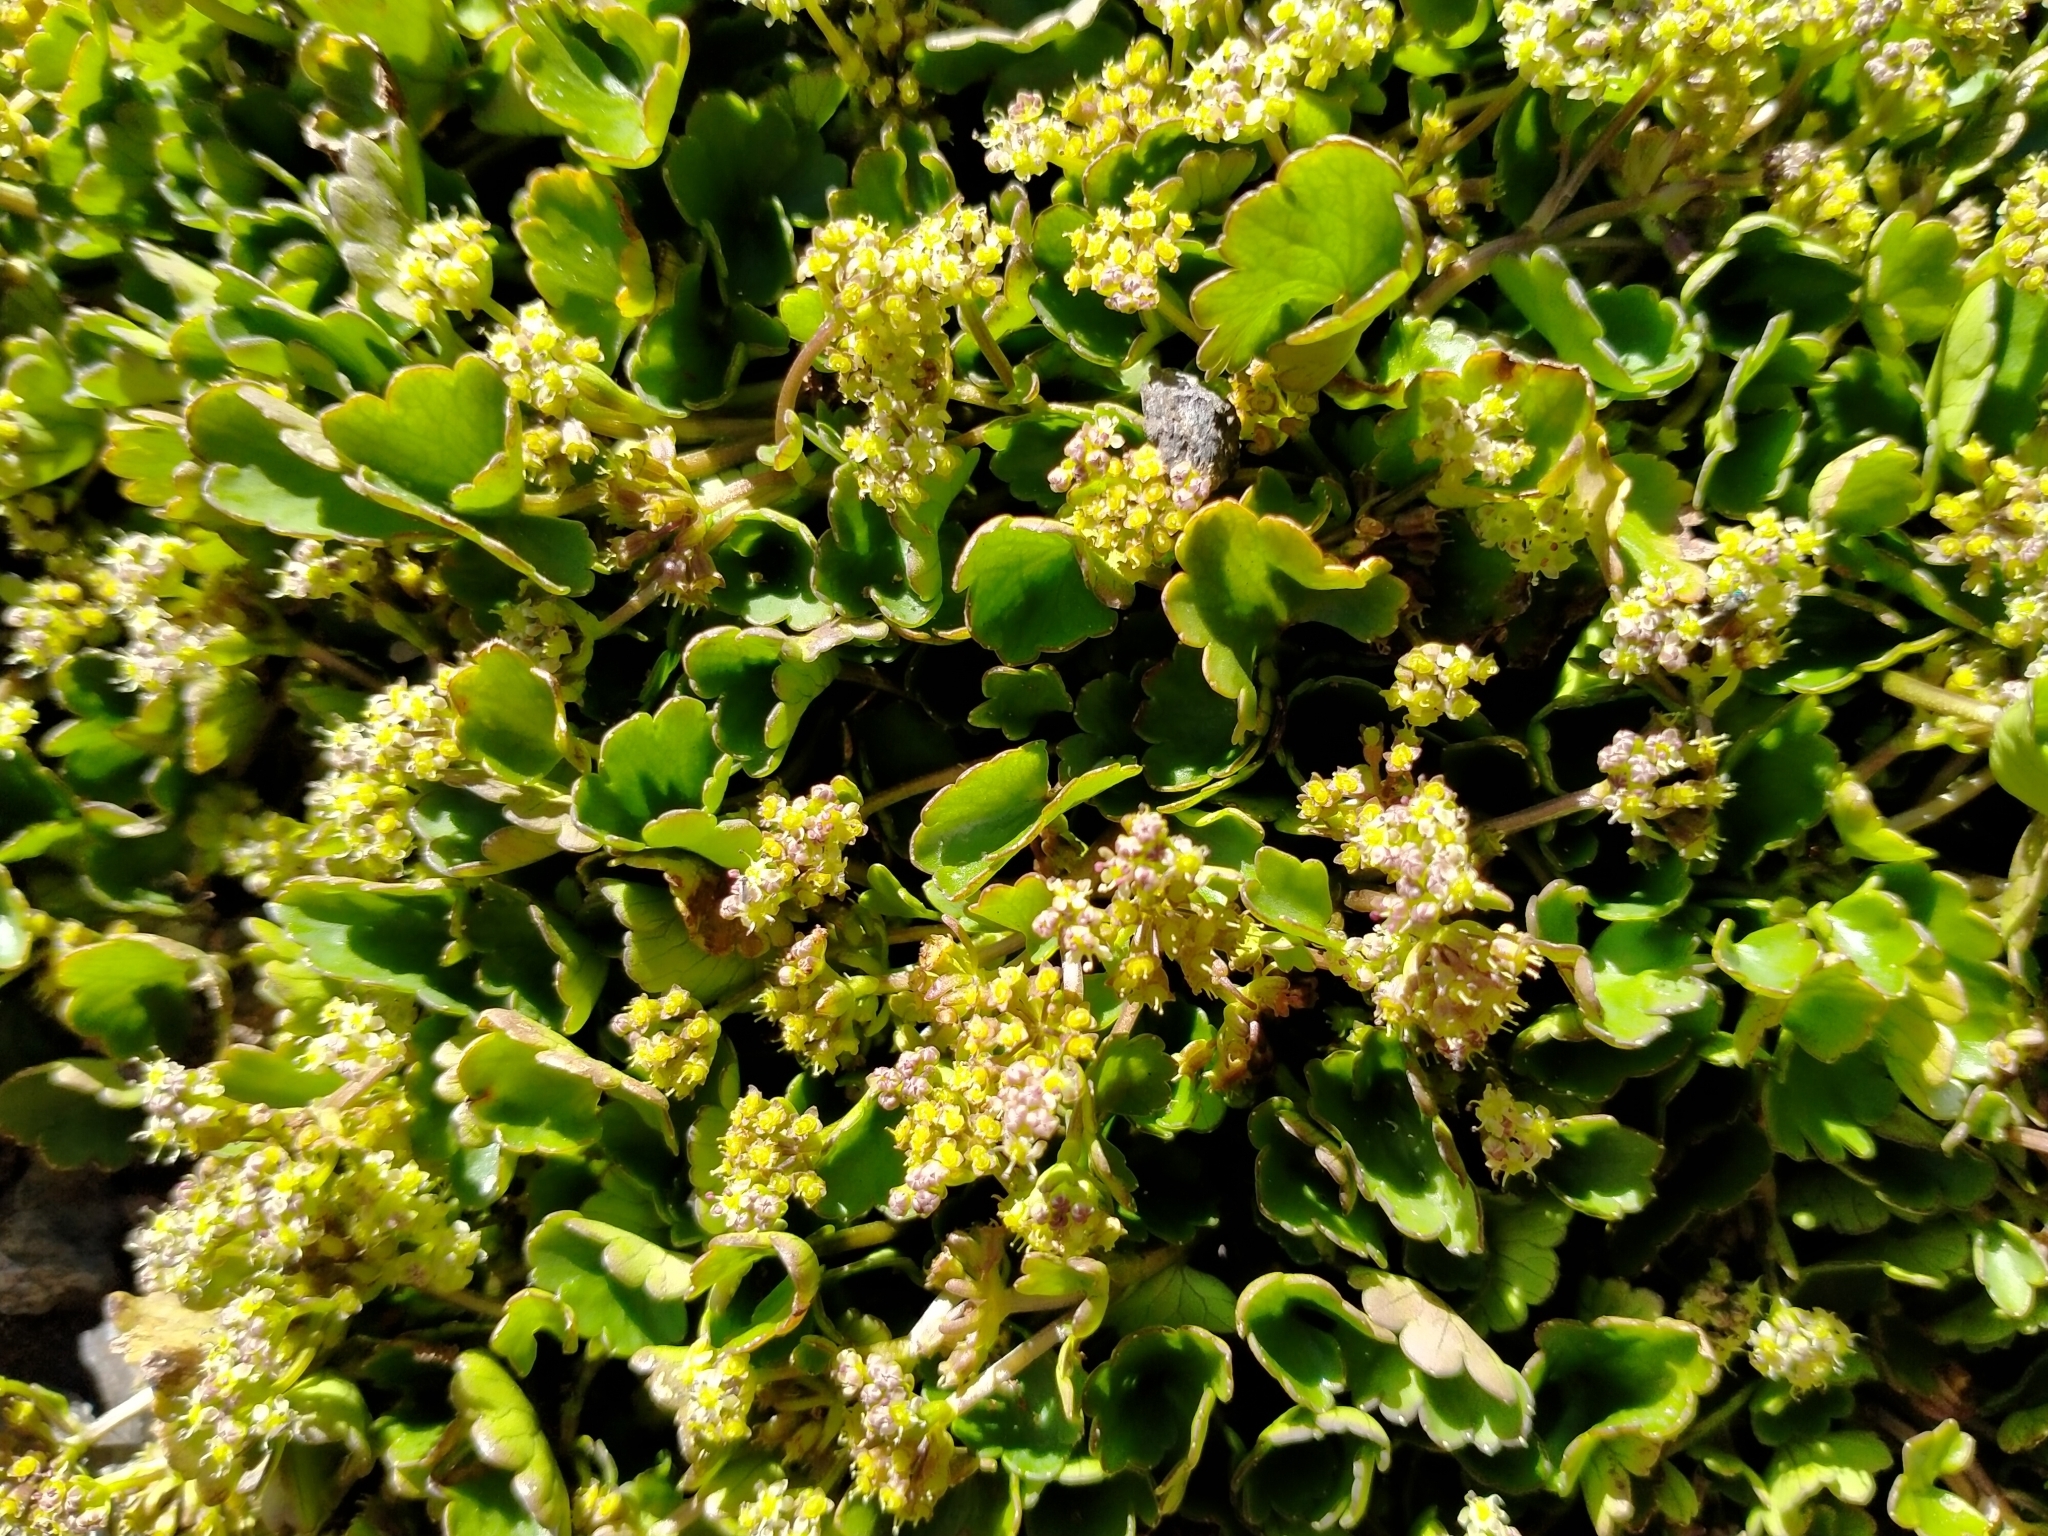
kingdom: Plantae
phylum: Tracheophyta
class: Magnoliopsida
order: Apiales
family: Apiaceae
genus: Azorella
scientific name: Azorella haastii
